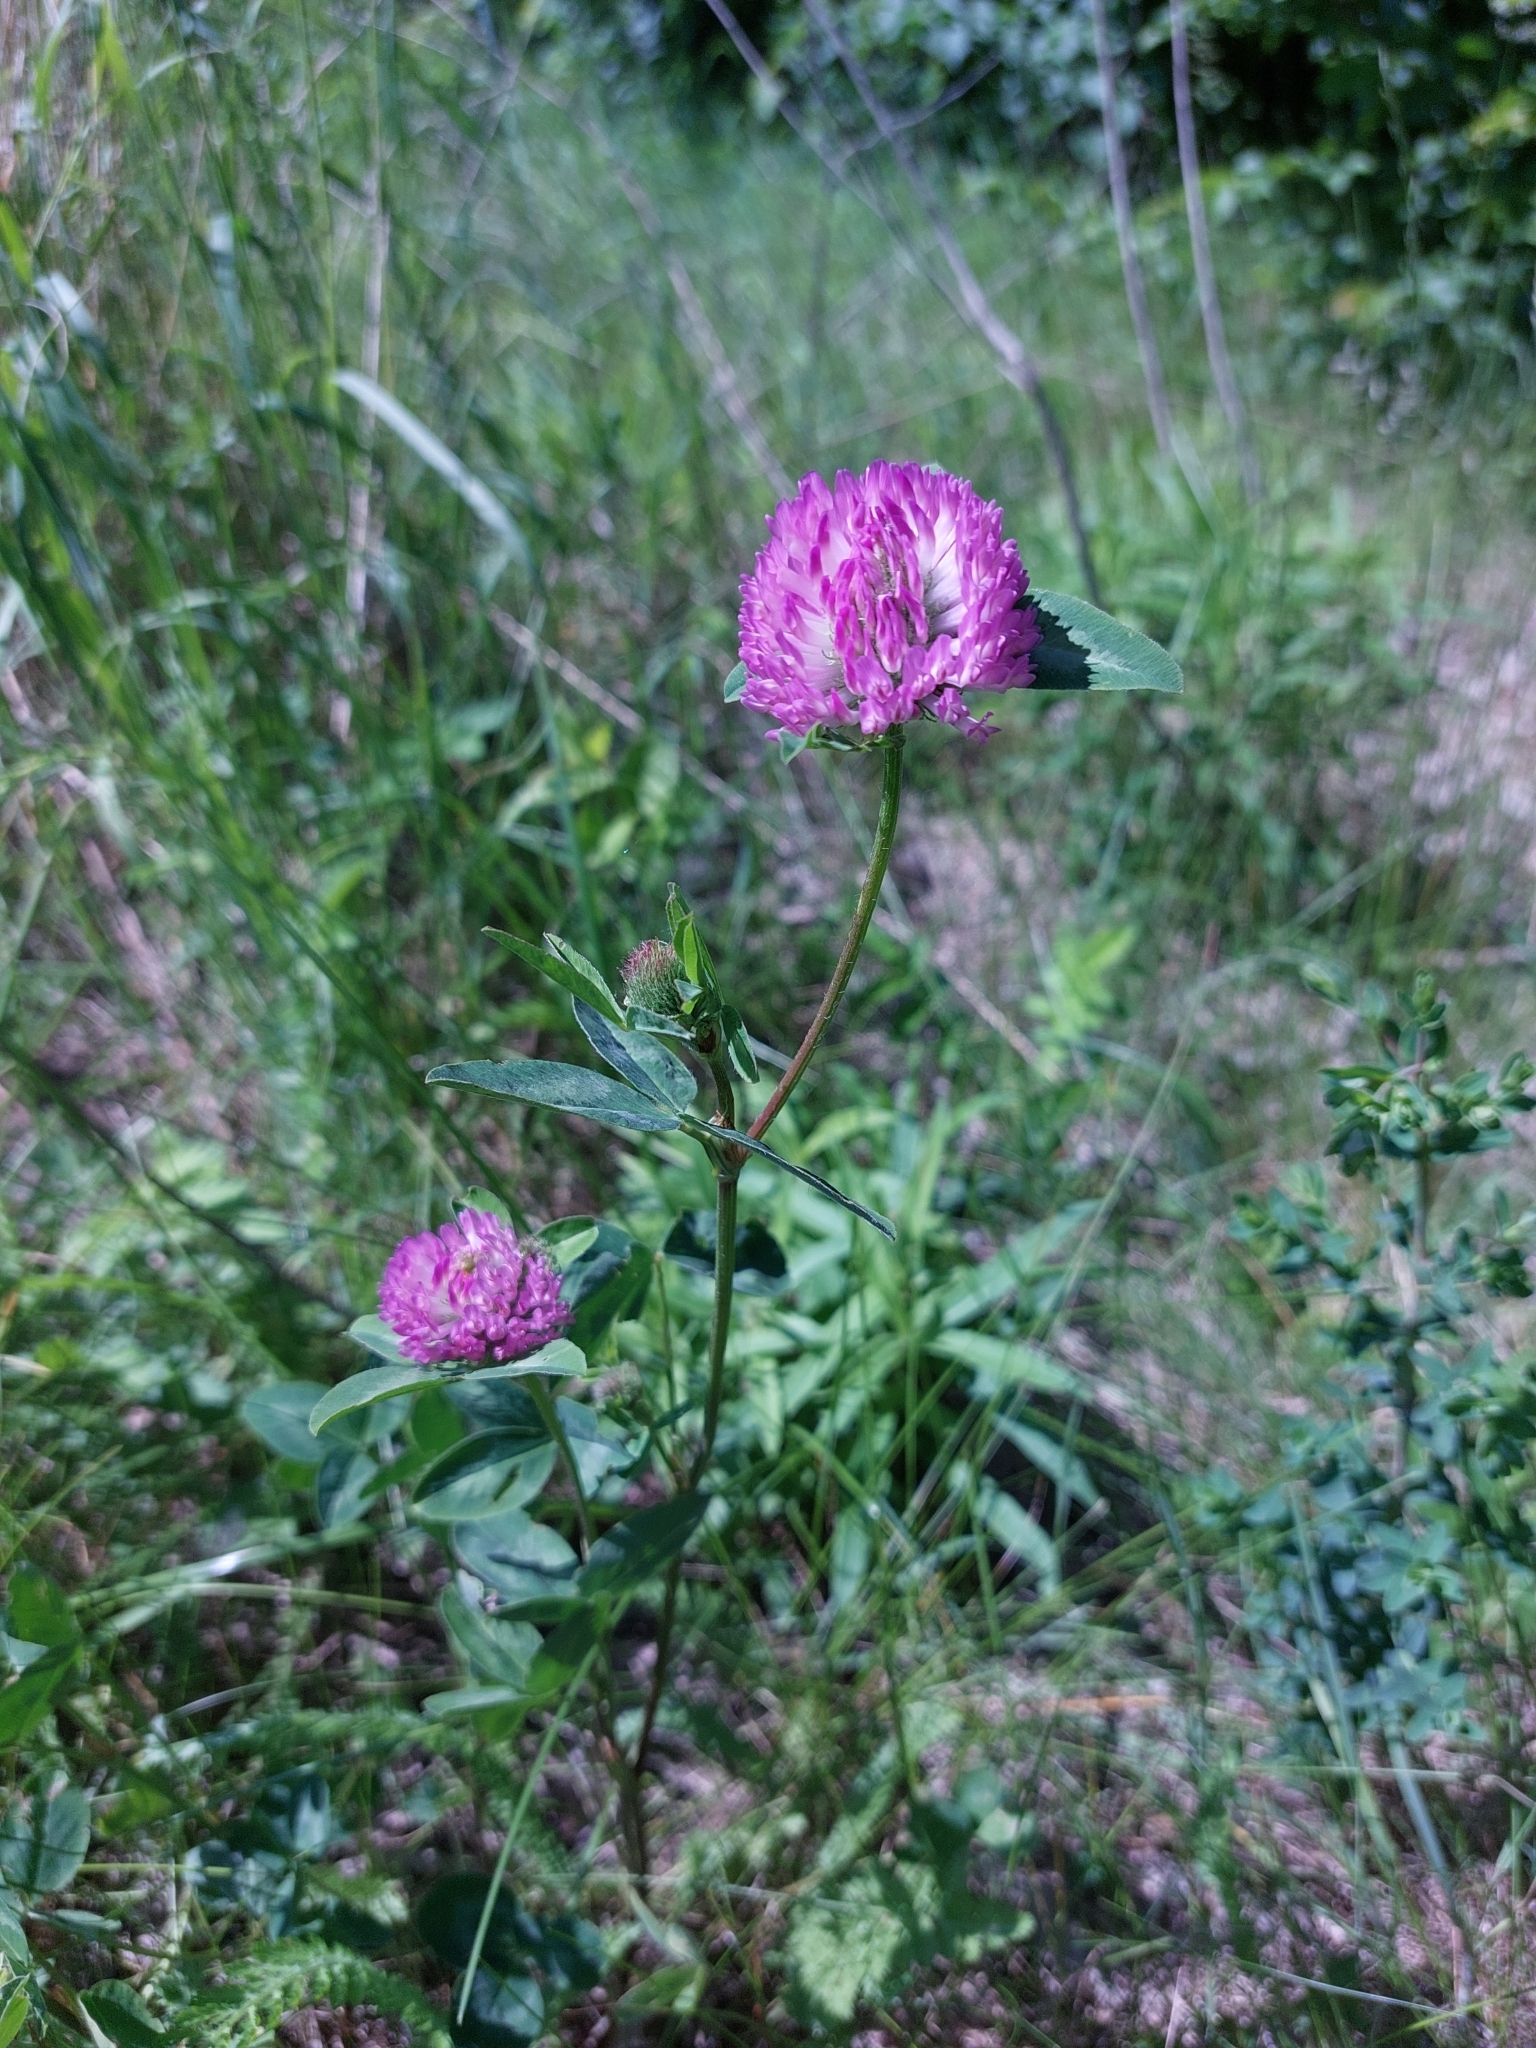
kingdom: Plantae
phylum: Tracheophyta
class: Magnoliopsida
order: Fabales
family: Fabaceae
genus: Trifolium
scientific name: Trifolium pratense
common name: Red clover
